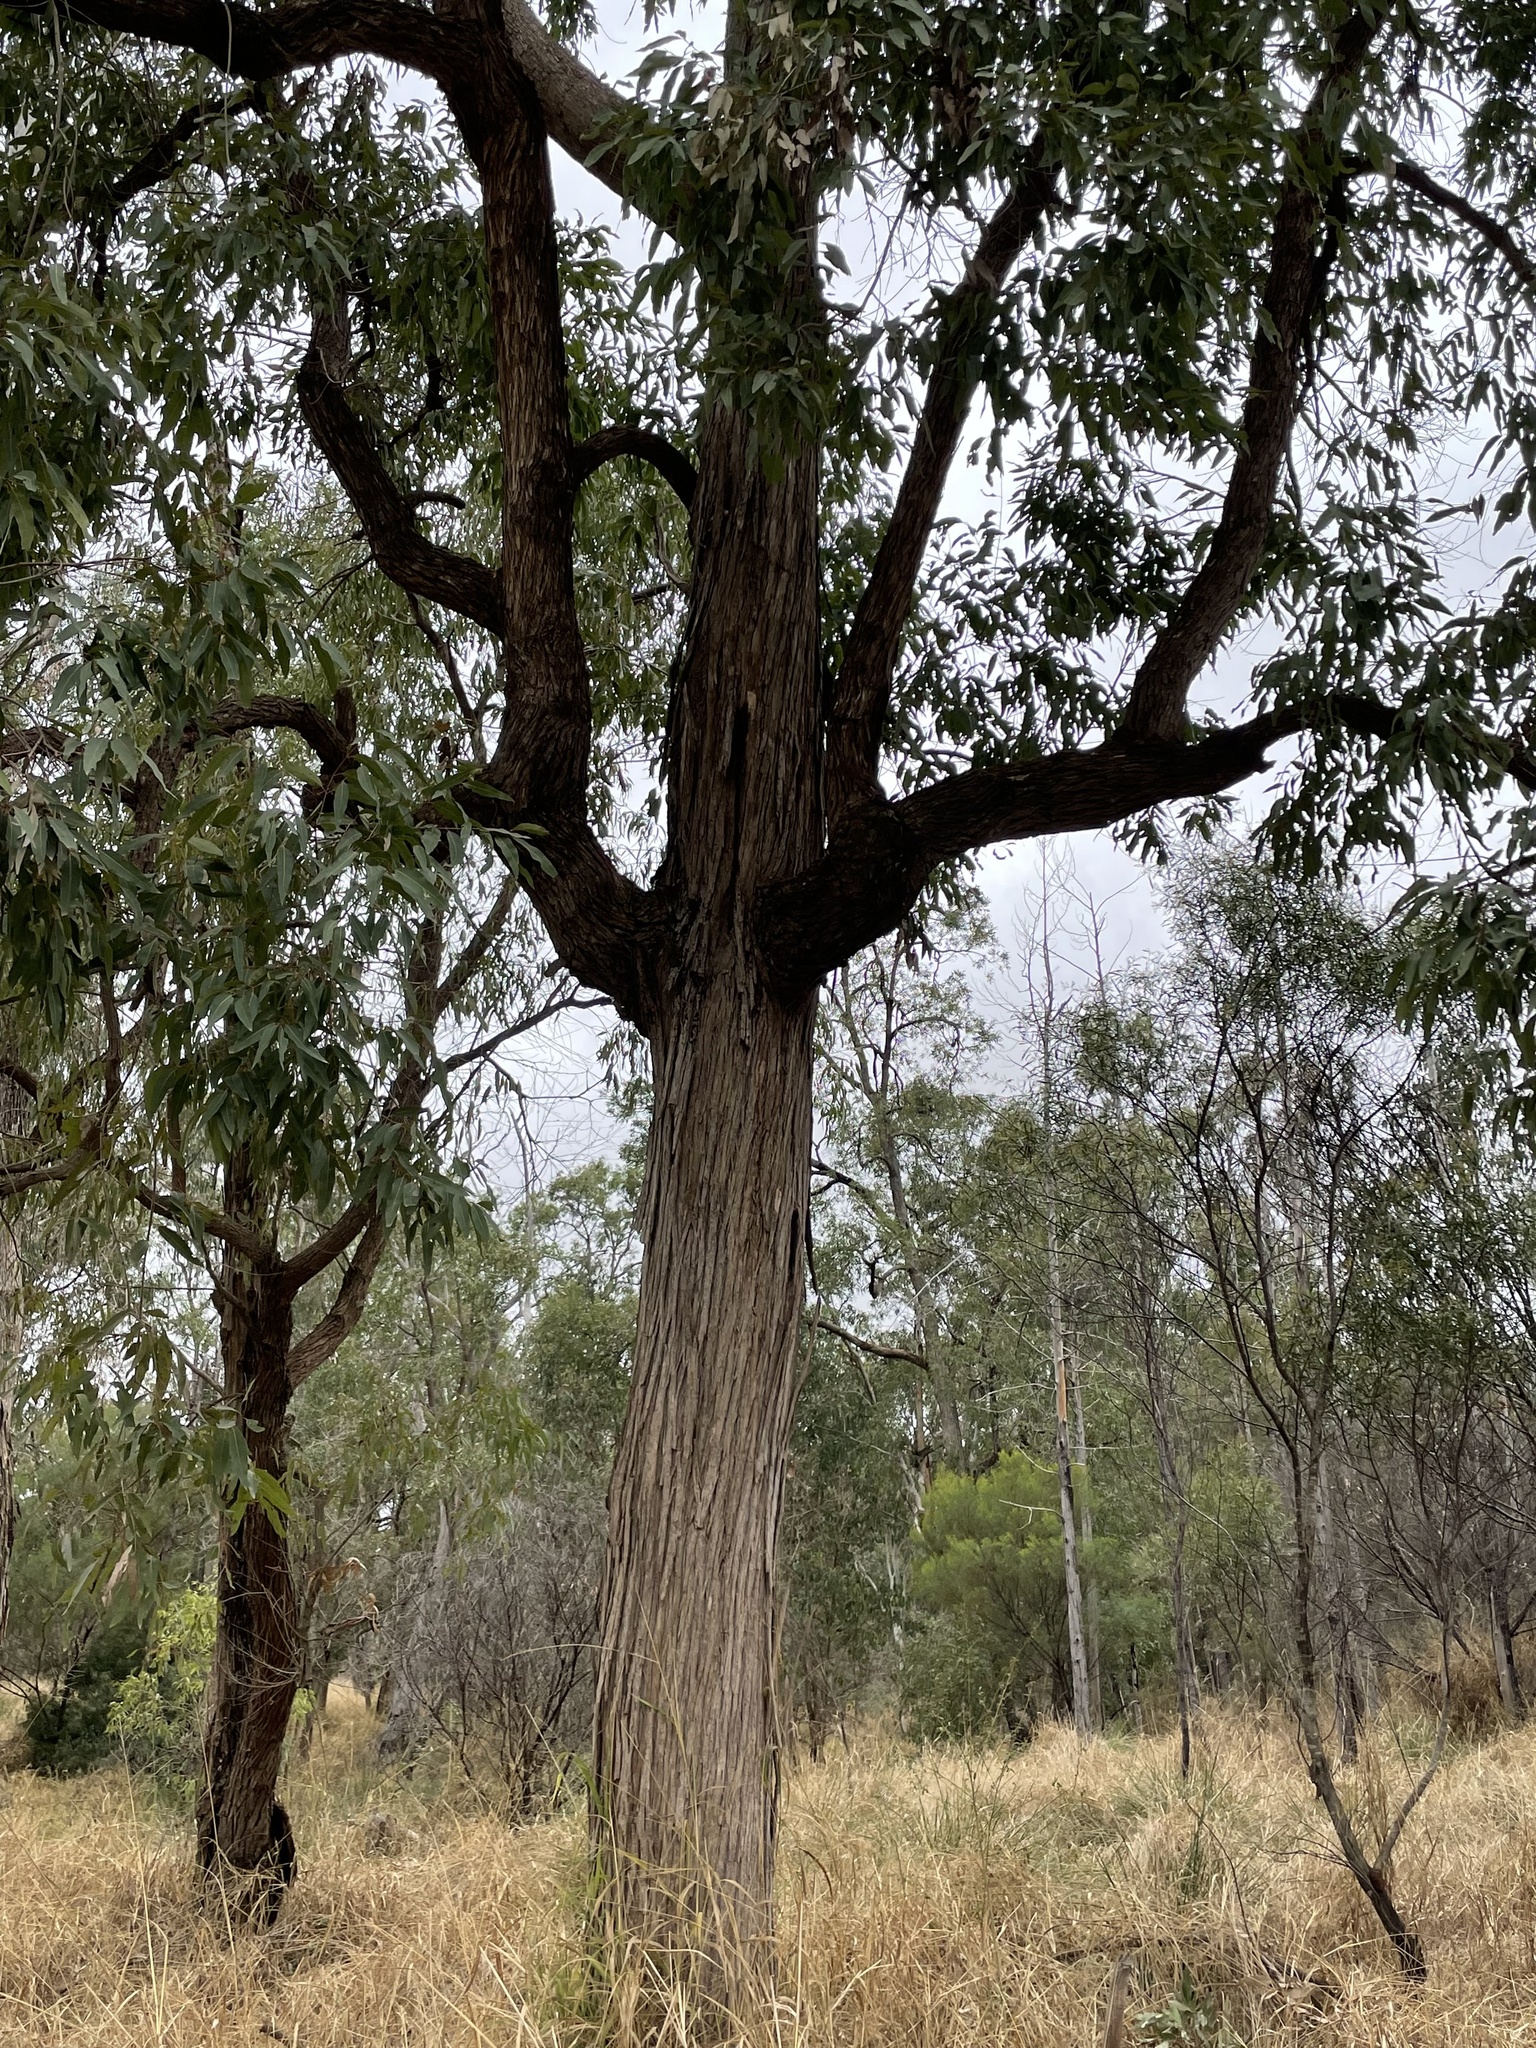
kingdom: Plantae
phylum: Tracheophyta
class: Magnoliopsida
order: Myrtales
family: Myrtaceae
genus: Angophora
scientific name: Angophora floribunda
